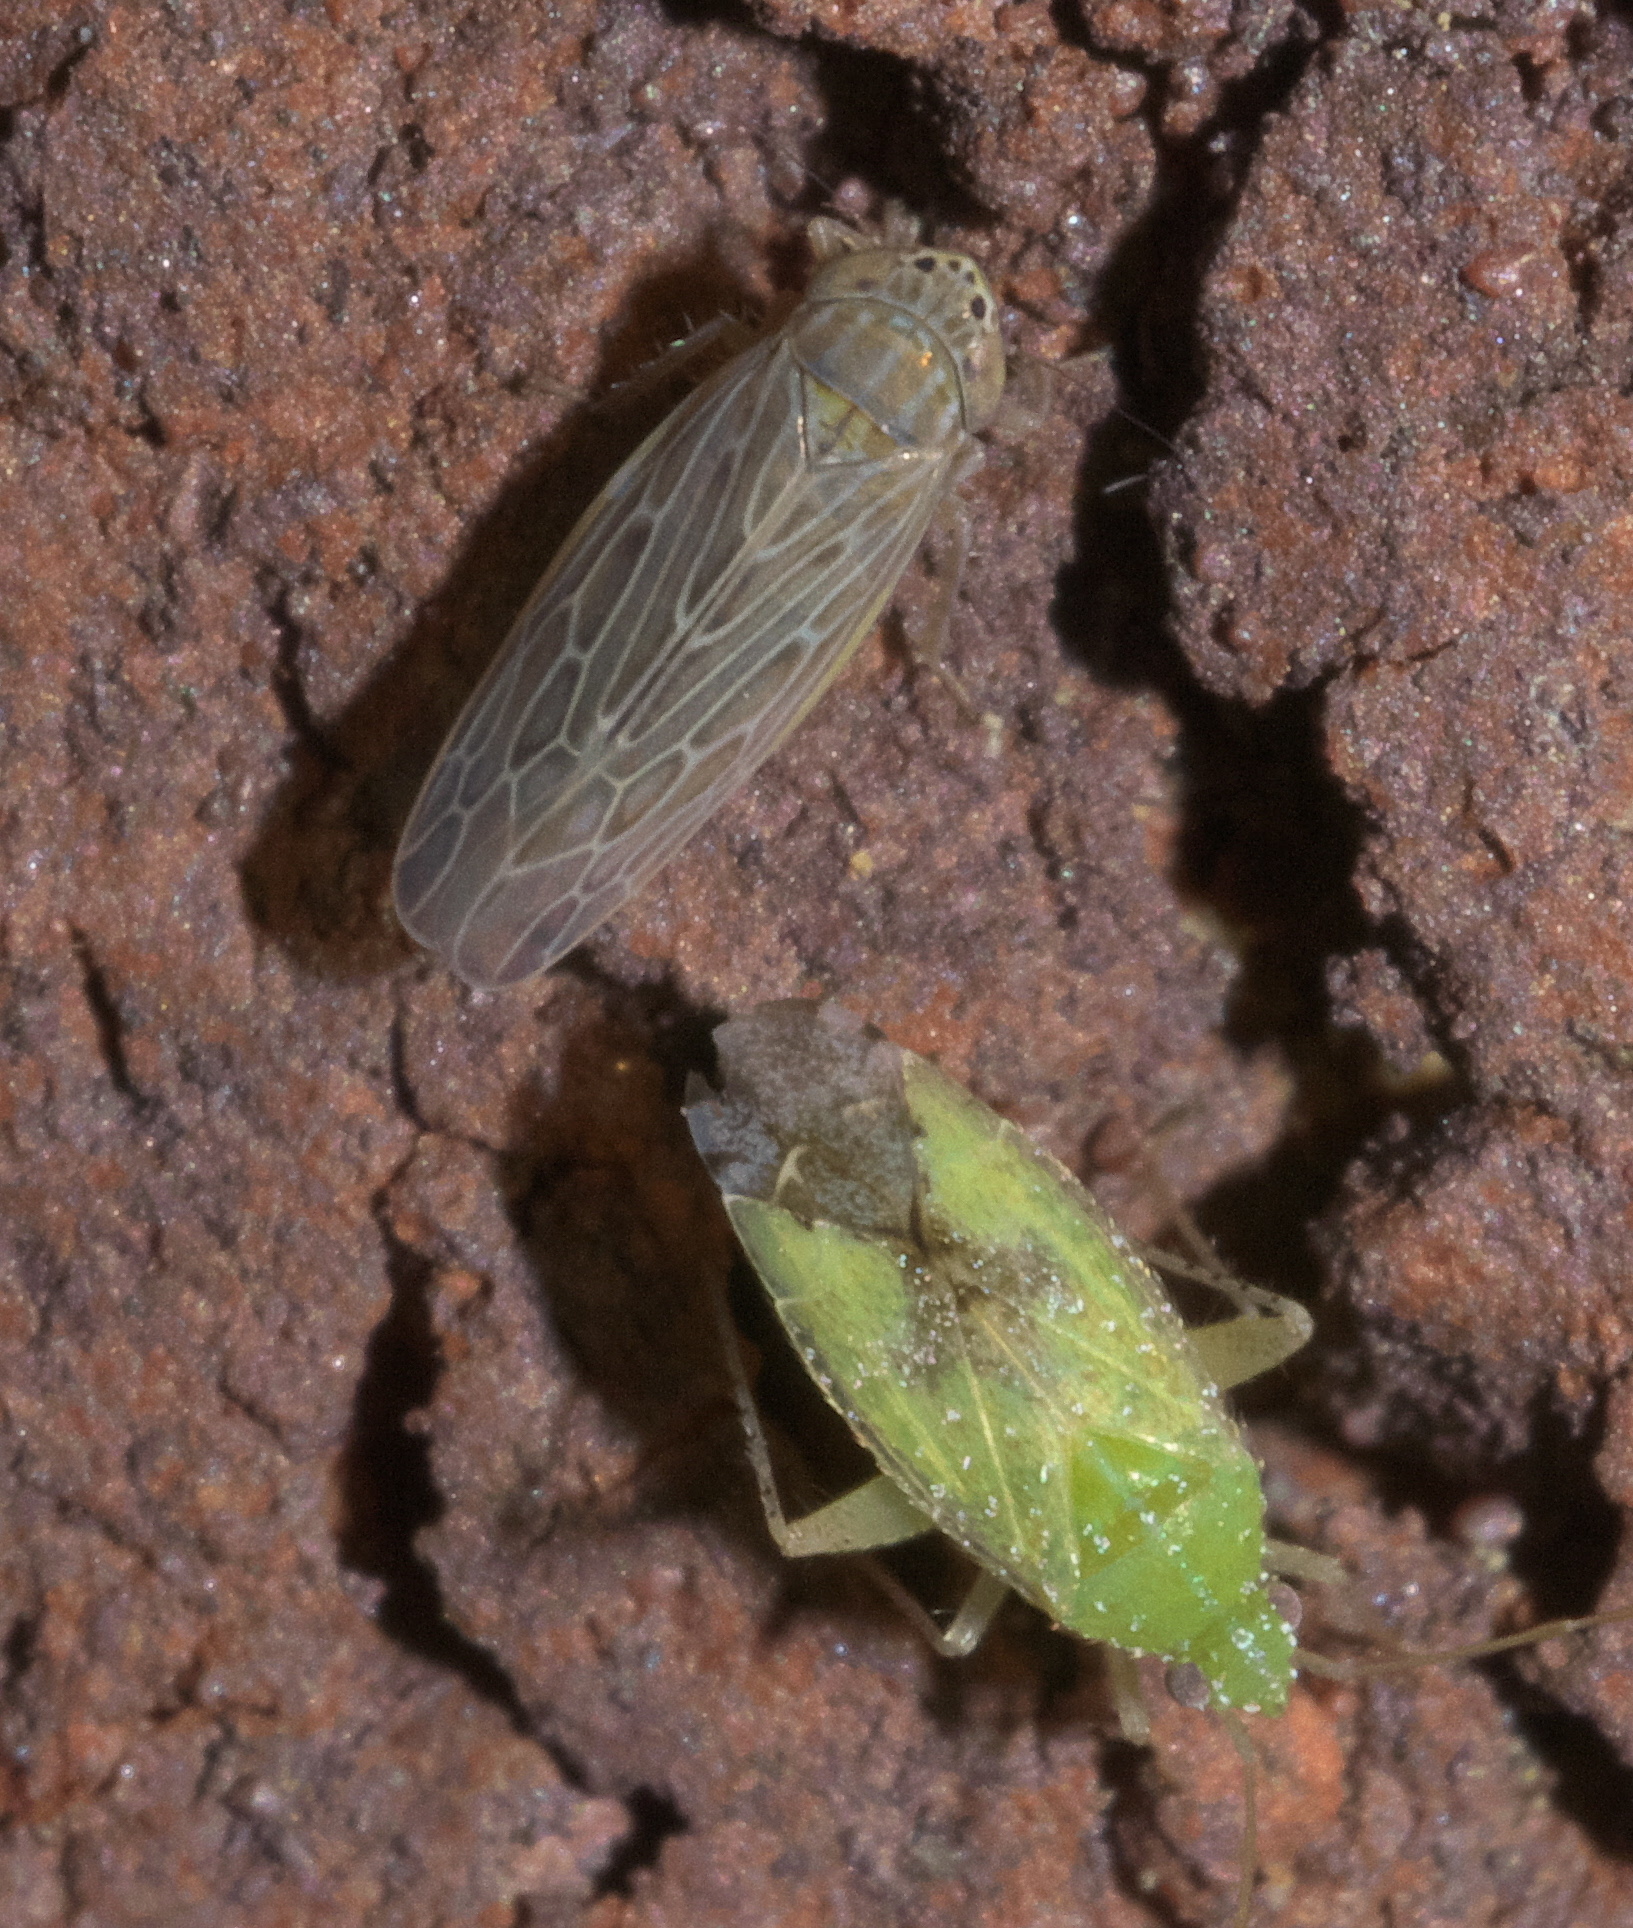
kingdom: Animalia
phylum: Arthropoda
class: Insecta
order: Hemiptera
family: Cicadellidae
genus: Graminella
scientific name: Graminella sonora
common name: Lesser lawn leafhopper
